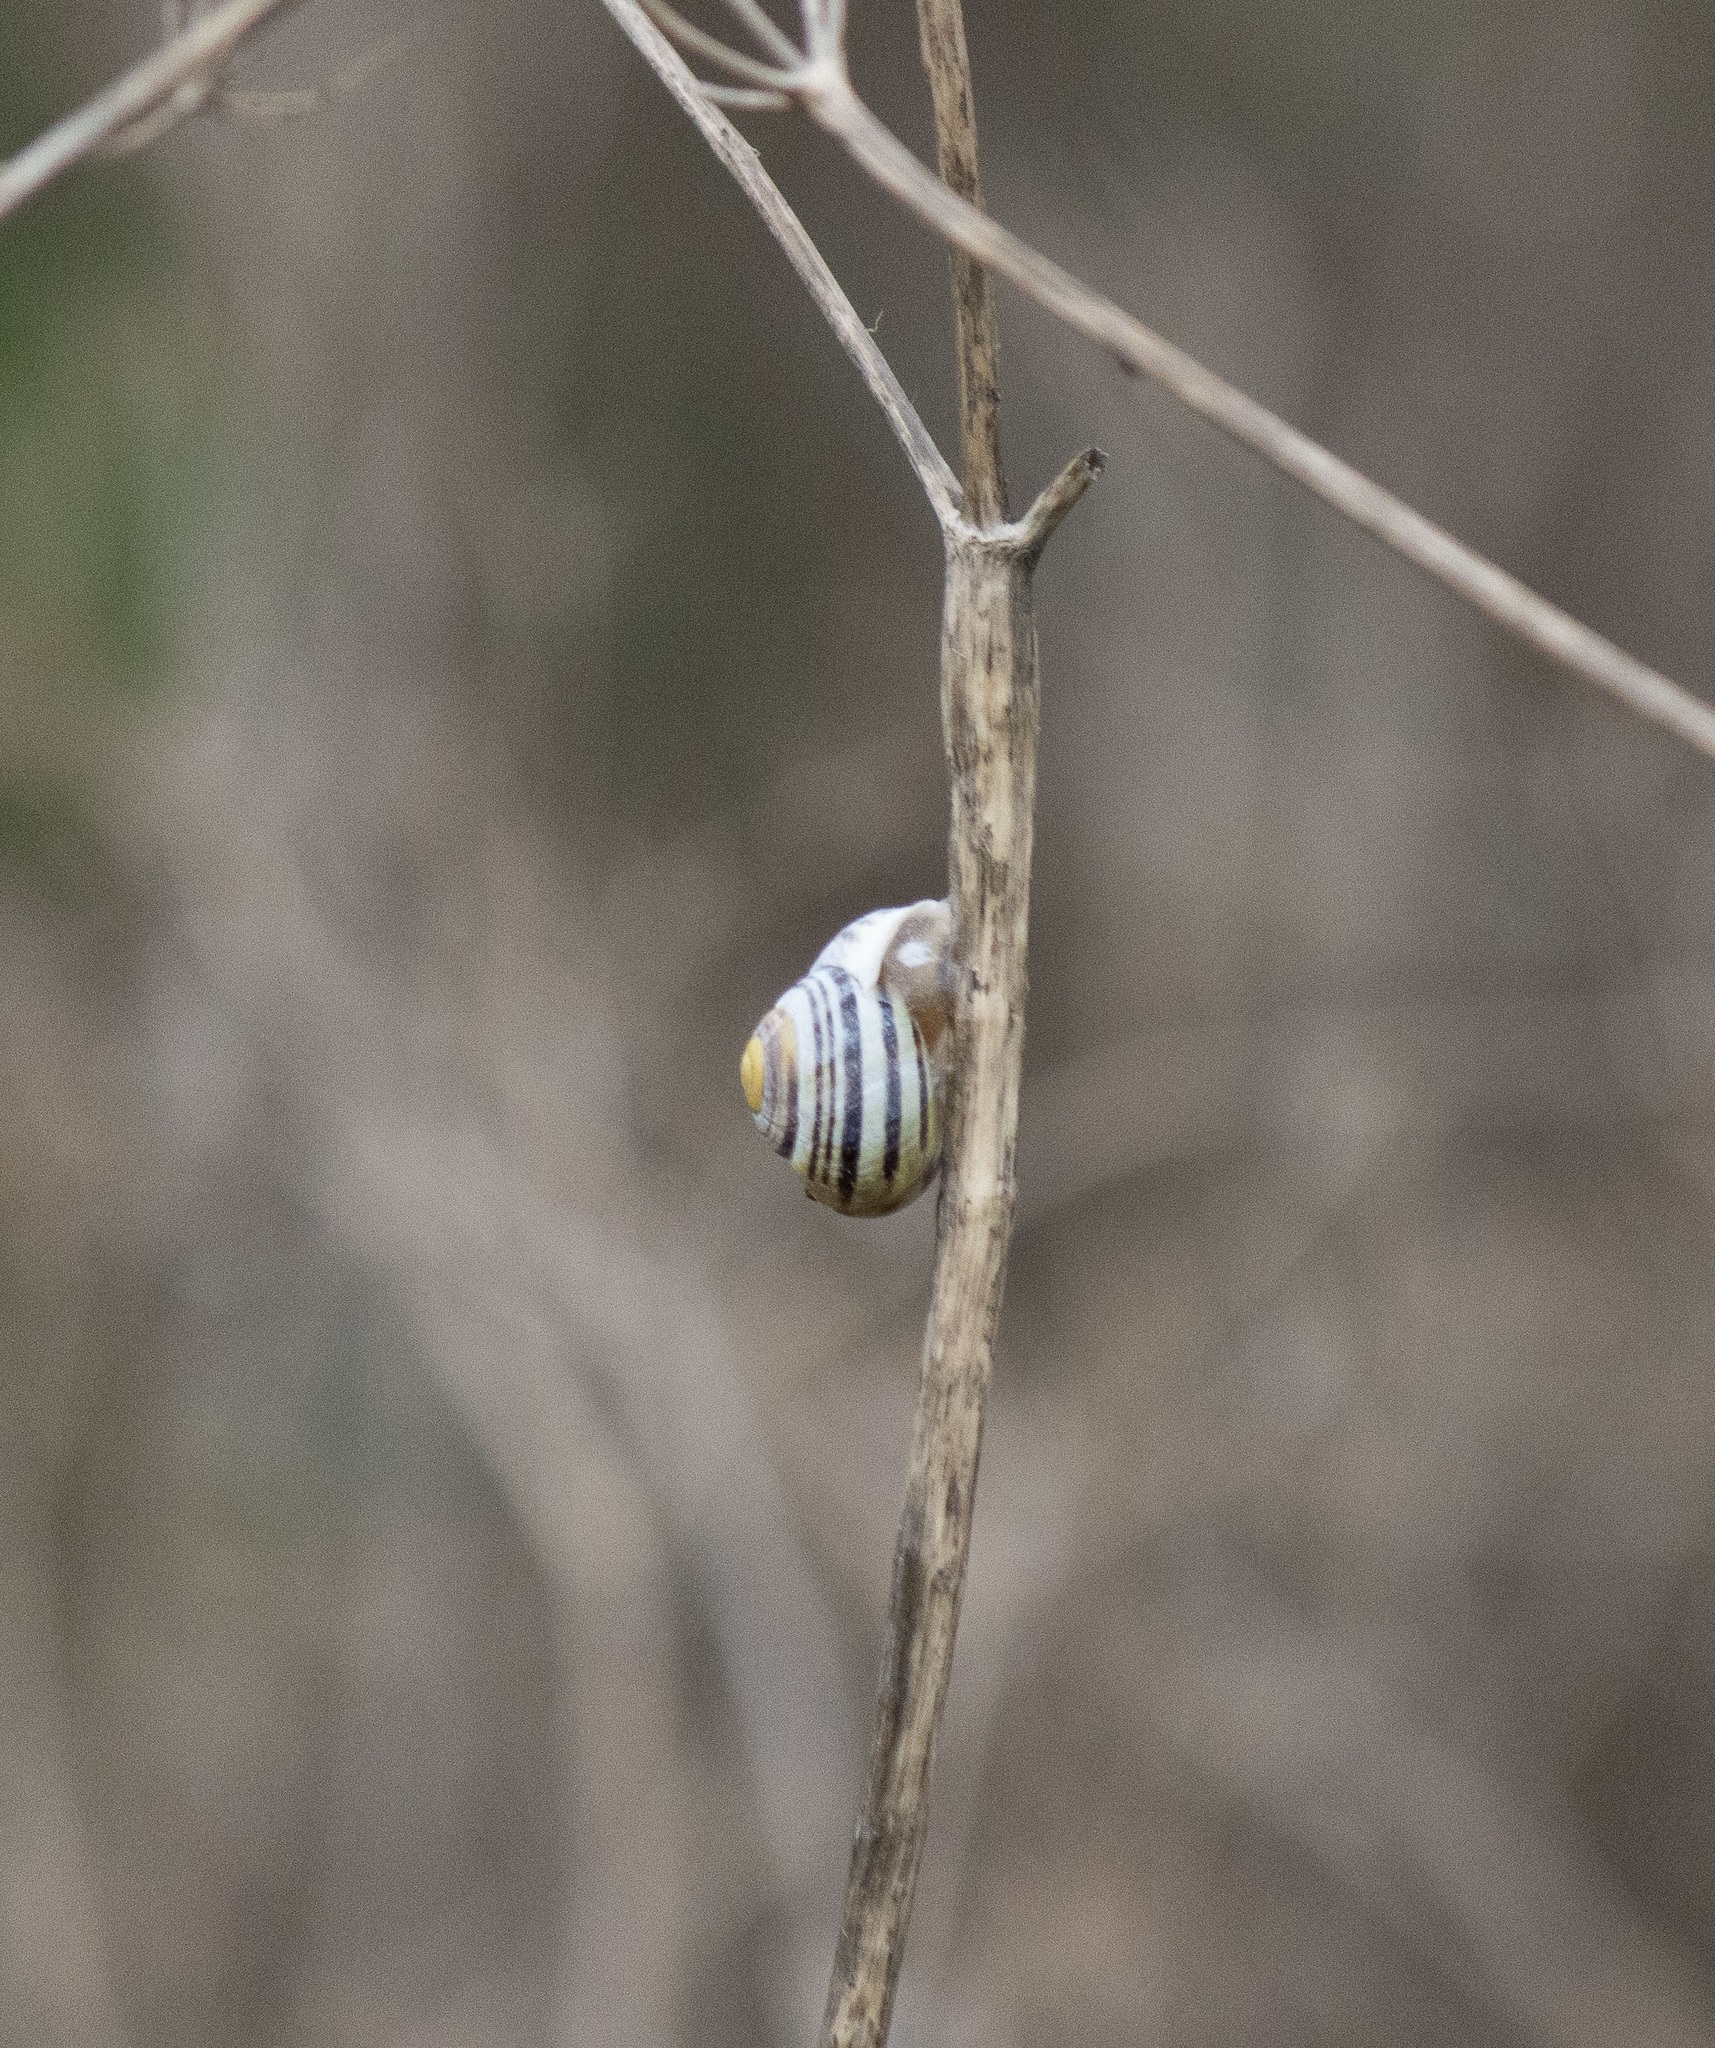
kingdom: Animalia
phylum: Mollusca
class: Gastropoda
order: Stylommatophora
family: Helicidae
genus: Cepaea
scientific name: Cepaea hortensis
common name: White-lip gardensnail
